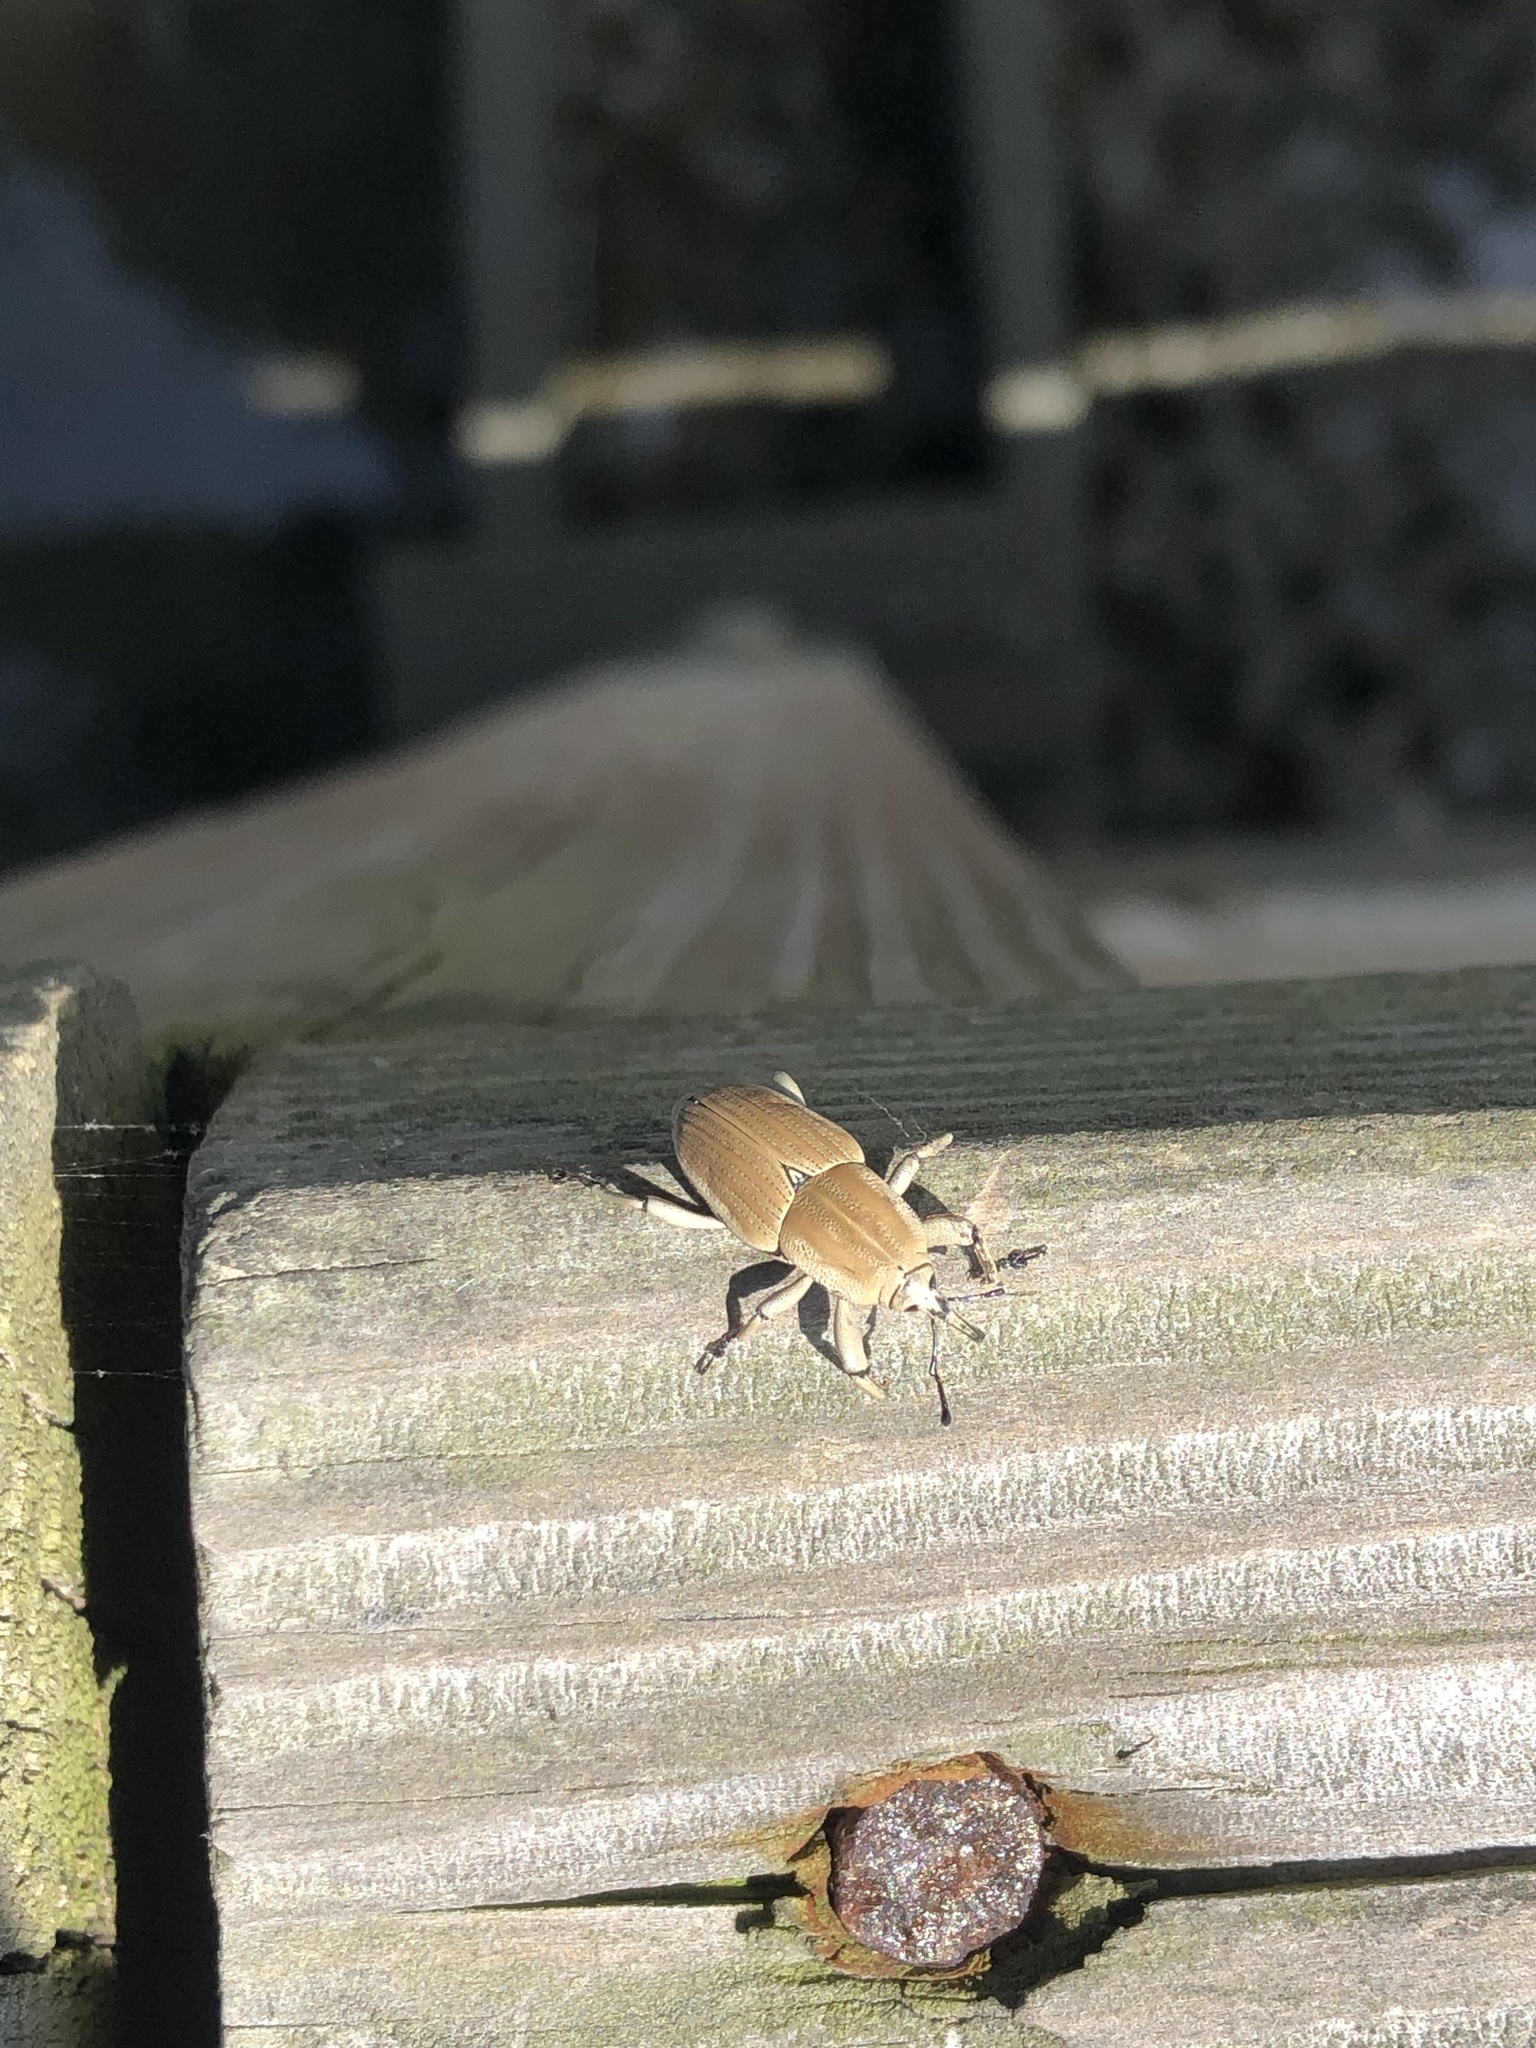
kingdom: Animalia
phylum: Arthropoda
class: Insecta
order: Coleoptera
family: Dryophthoridae
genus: Sphenophorus
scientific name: Sphenophorus aequalis
